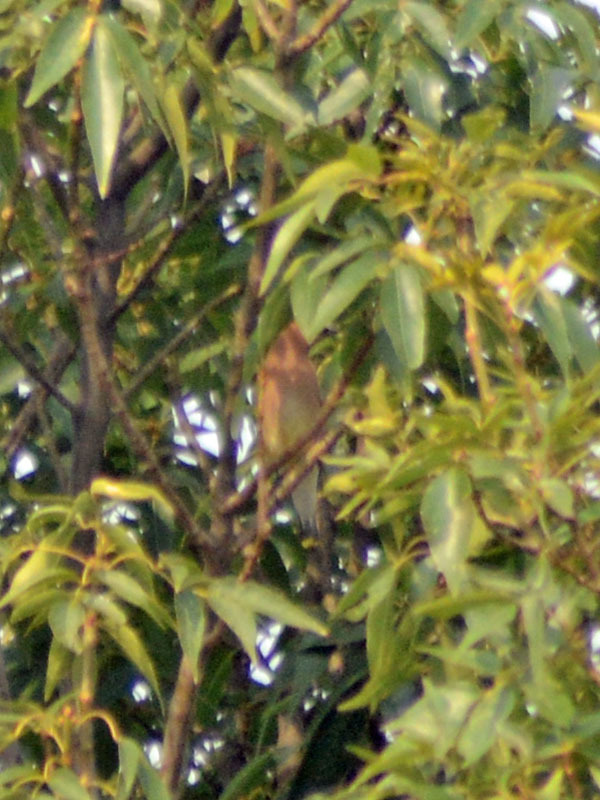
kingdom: Animalia
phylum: Chordata
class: Aves
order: Passeriformes
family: Bombycillidae
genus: Bombycilla
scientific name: Bombycilla cedrorum
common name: Cedar waxwing
